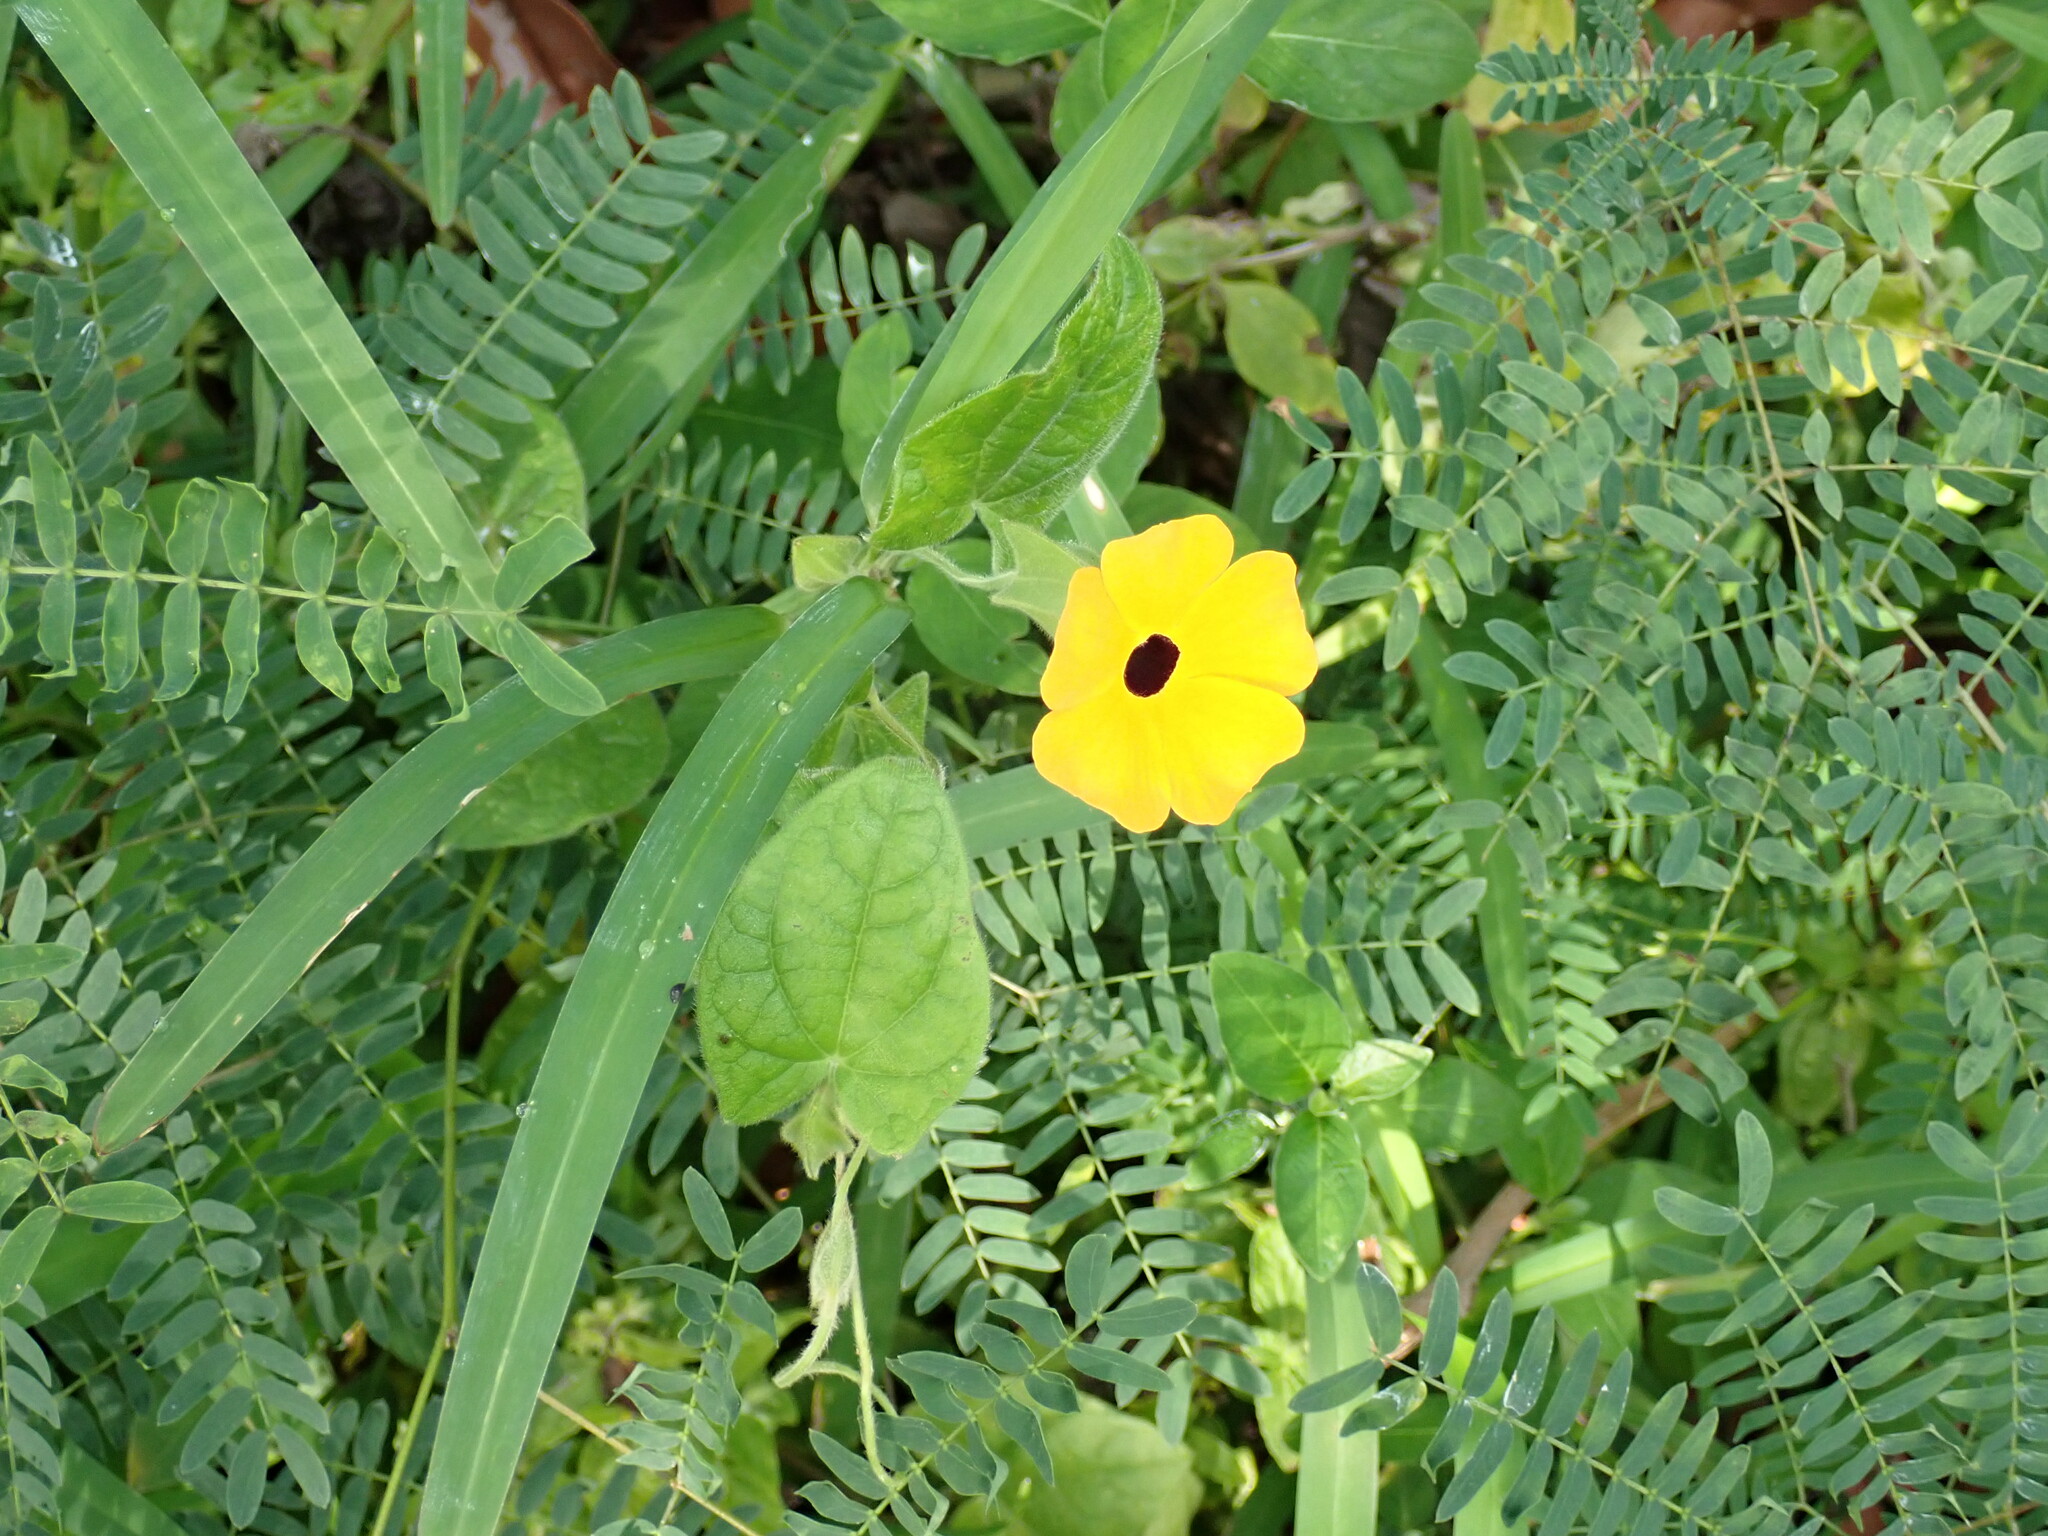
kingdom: Plantae
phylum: Tracheophyta
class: Magnoliopsida
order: Lamiales
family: Acanthaceae
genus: Thunbergia
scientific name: Thunbergia alata
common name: Blackeyed susan vine
